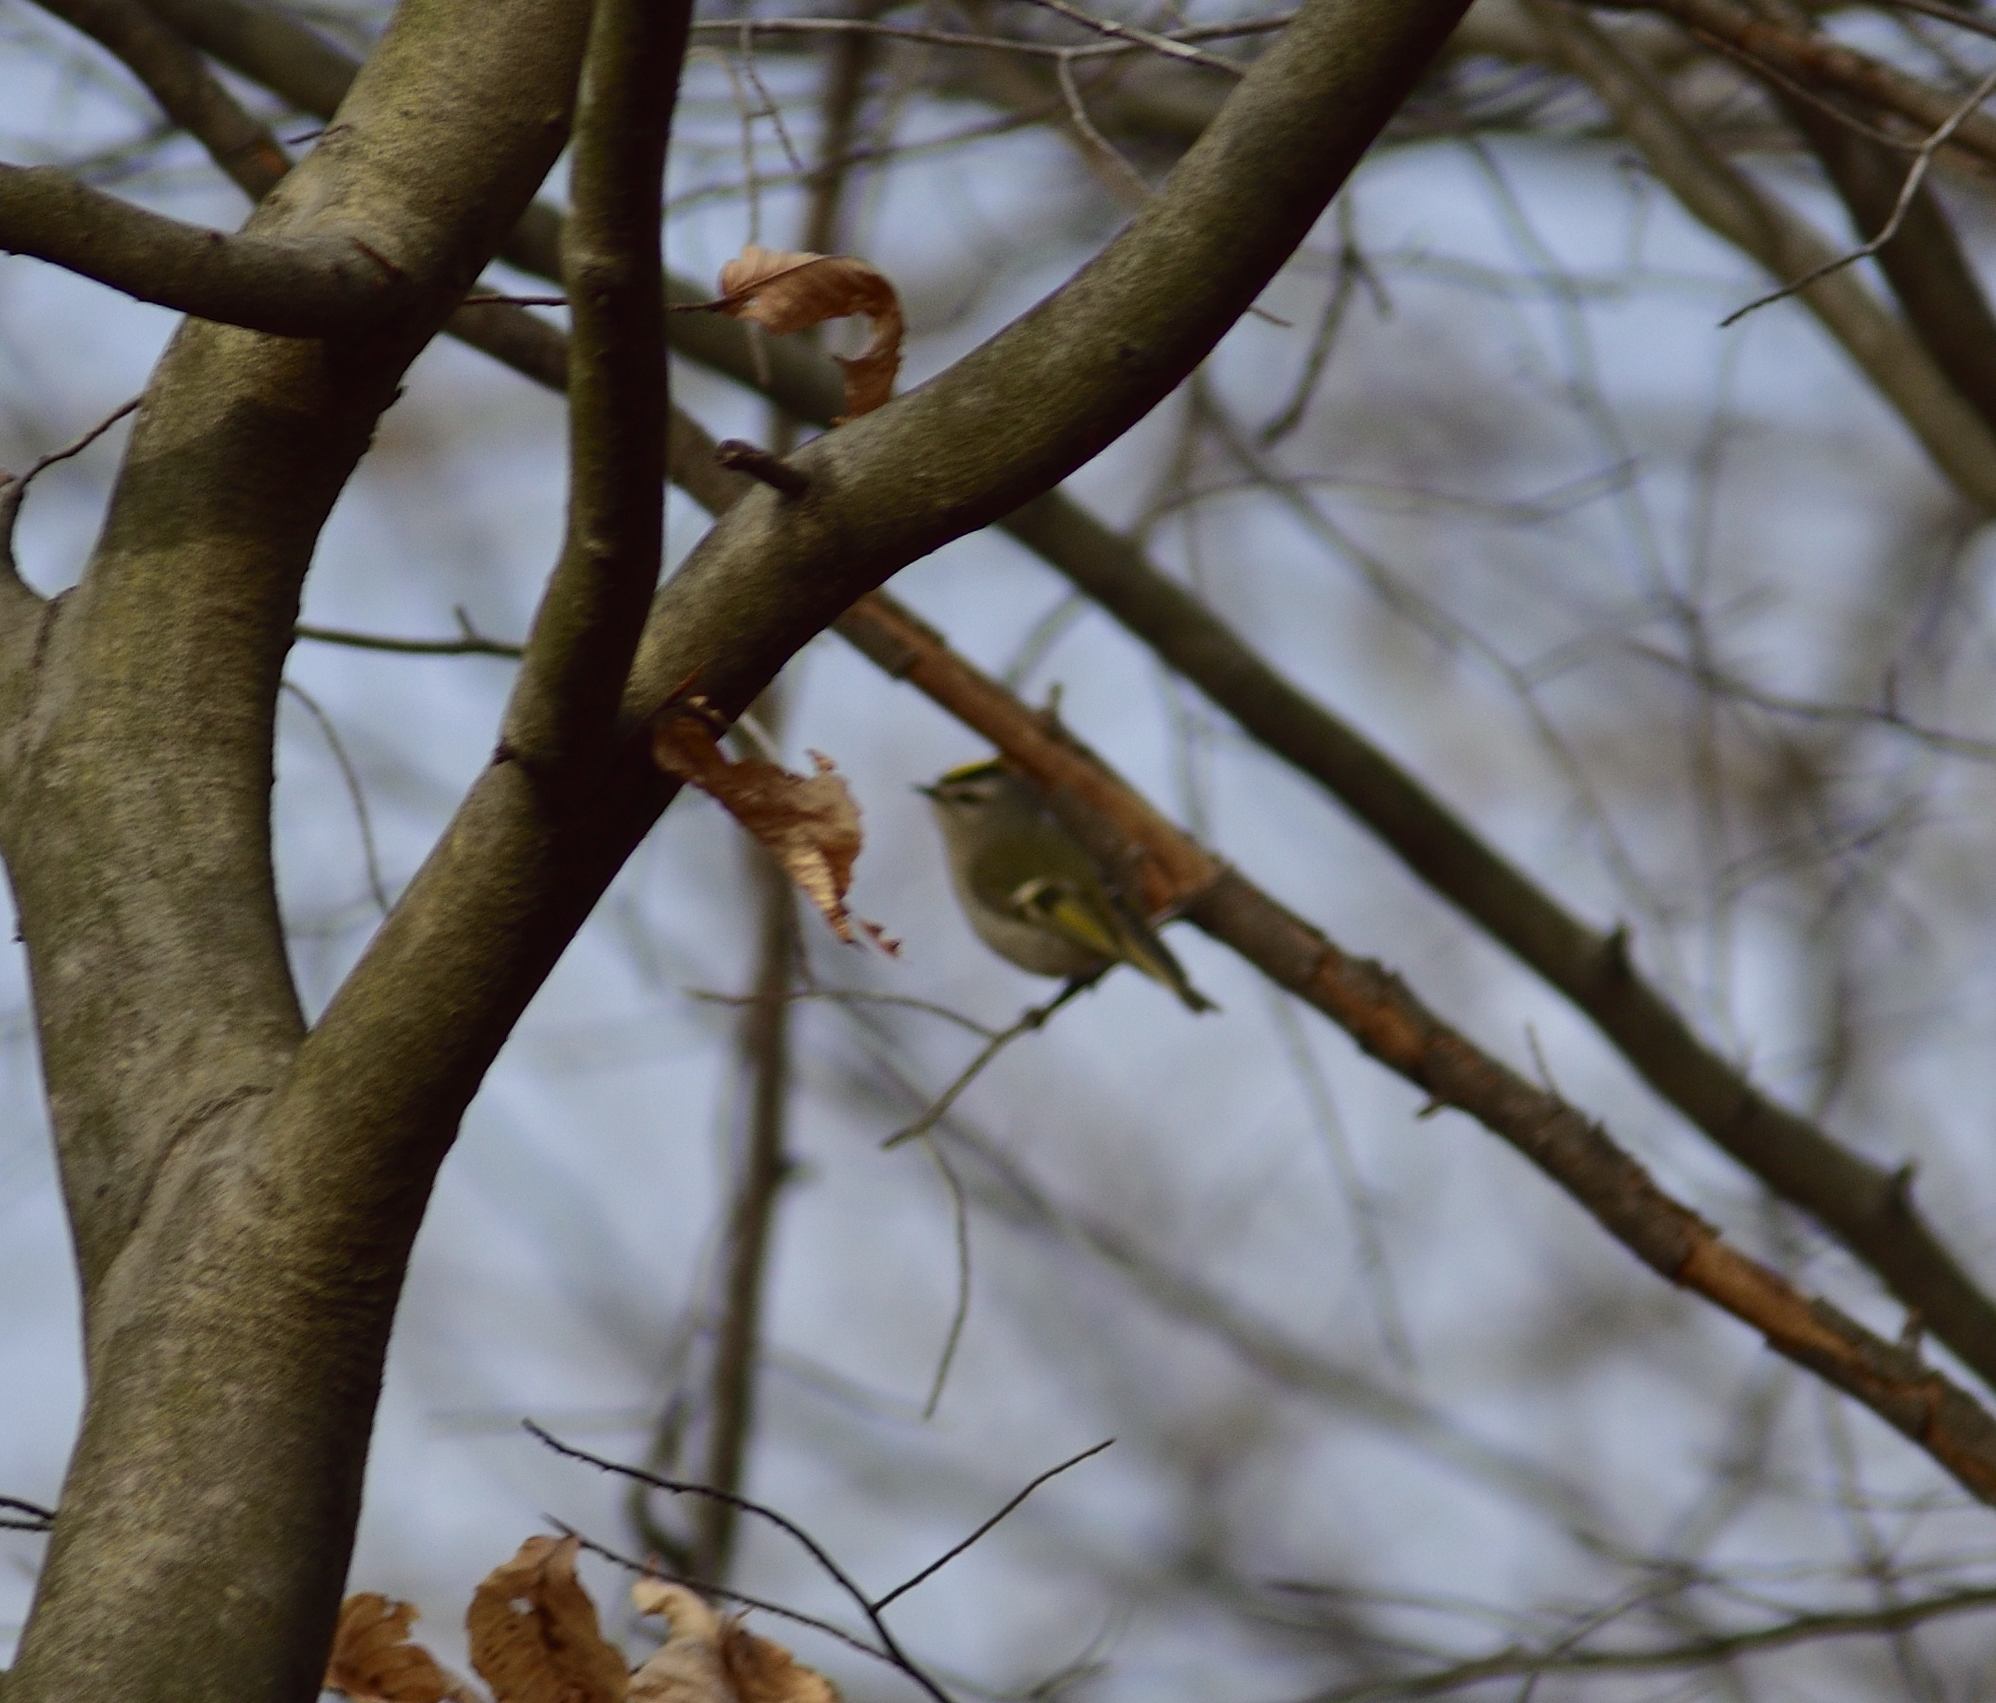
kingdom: Animalia
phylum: Chordata
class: Aves
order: Passeriformes
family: Regulidae
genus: Regulus
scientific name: Regulus satrapa
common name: Golden-crowned kinglet
